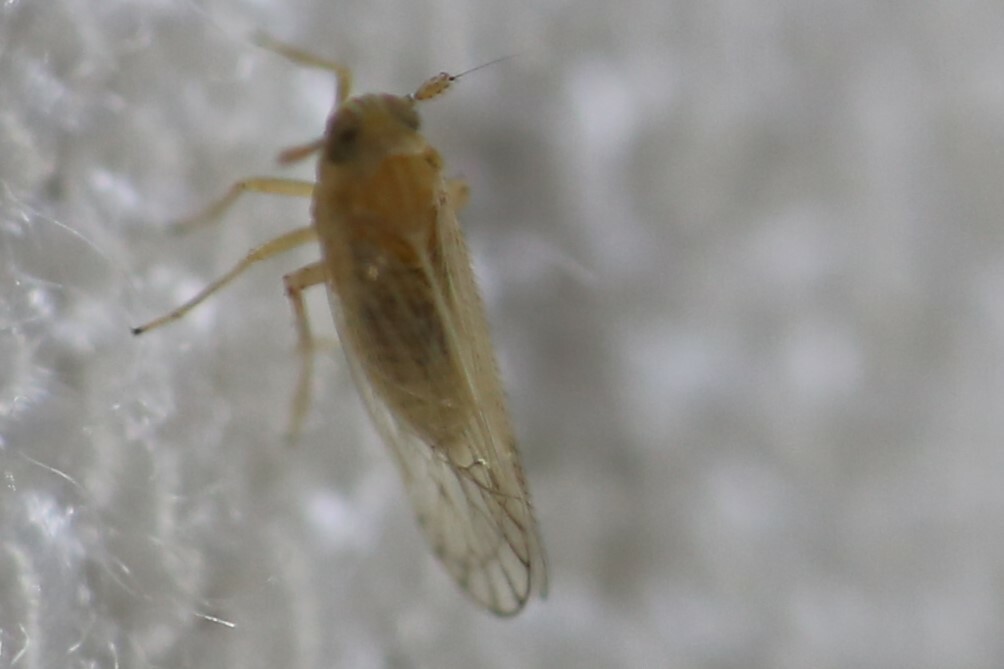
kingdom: Animalia
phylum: Arthropoda
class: Insecta
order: Hemiptera
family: Derbidae
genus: Saccharodite
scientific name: Saccharodite chrysonoe
